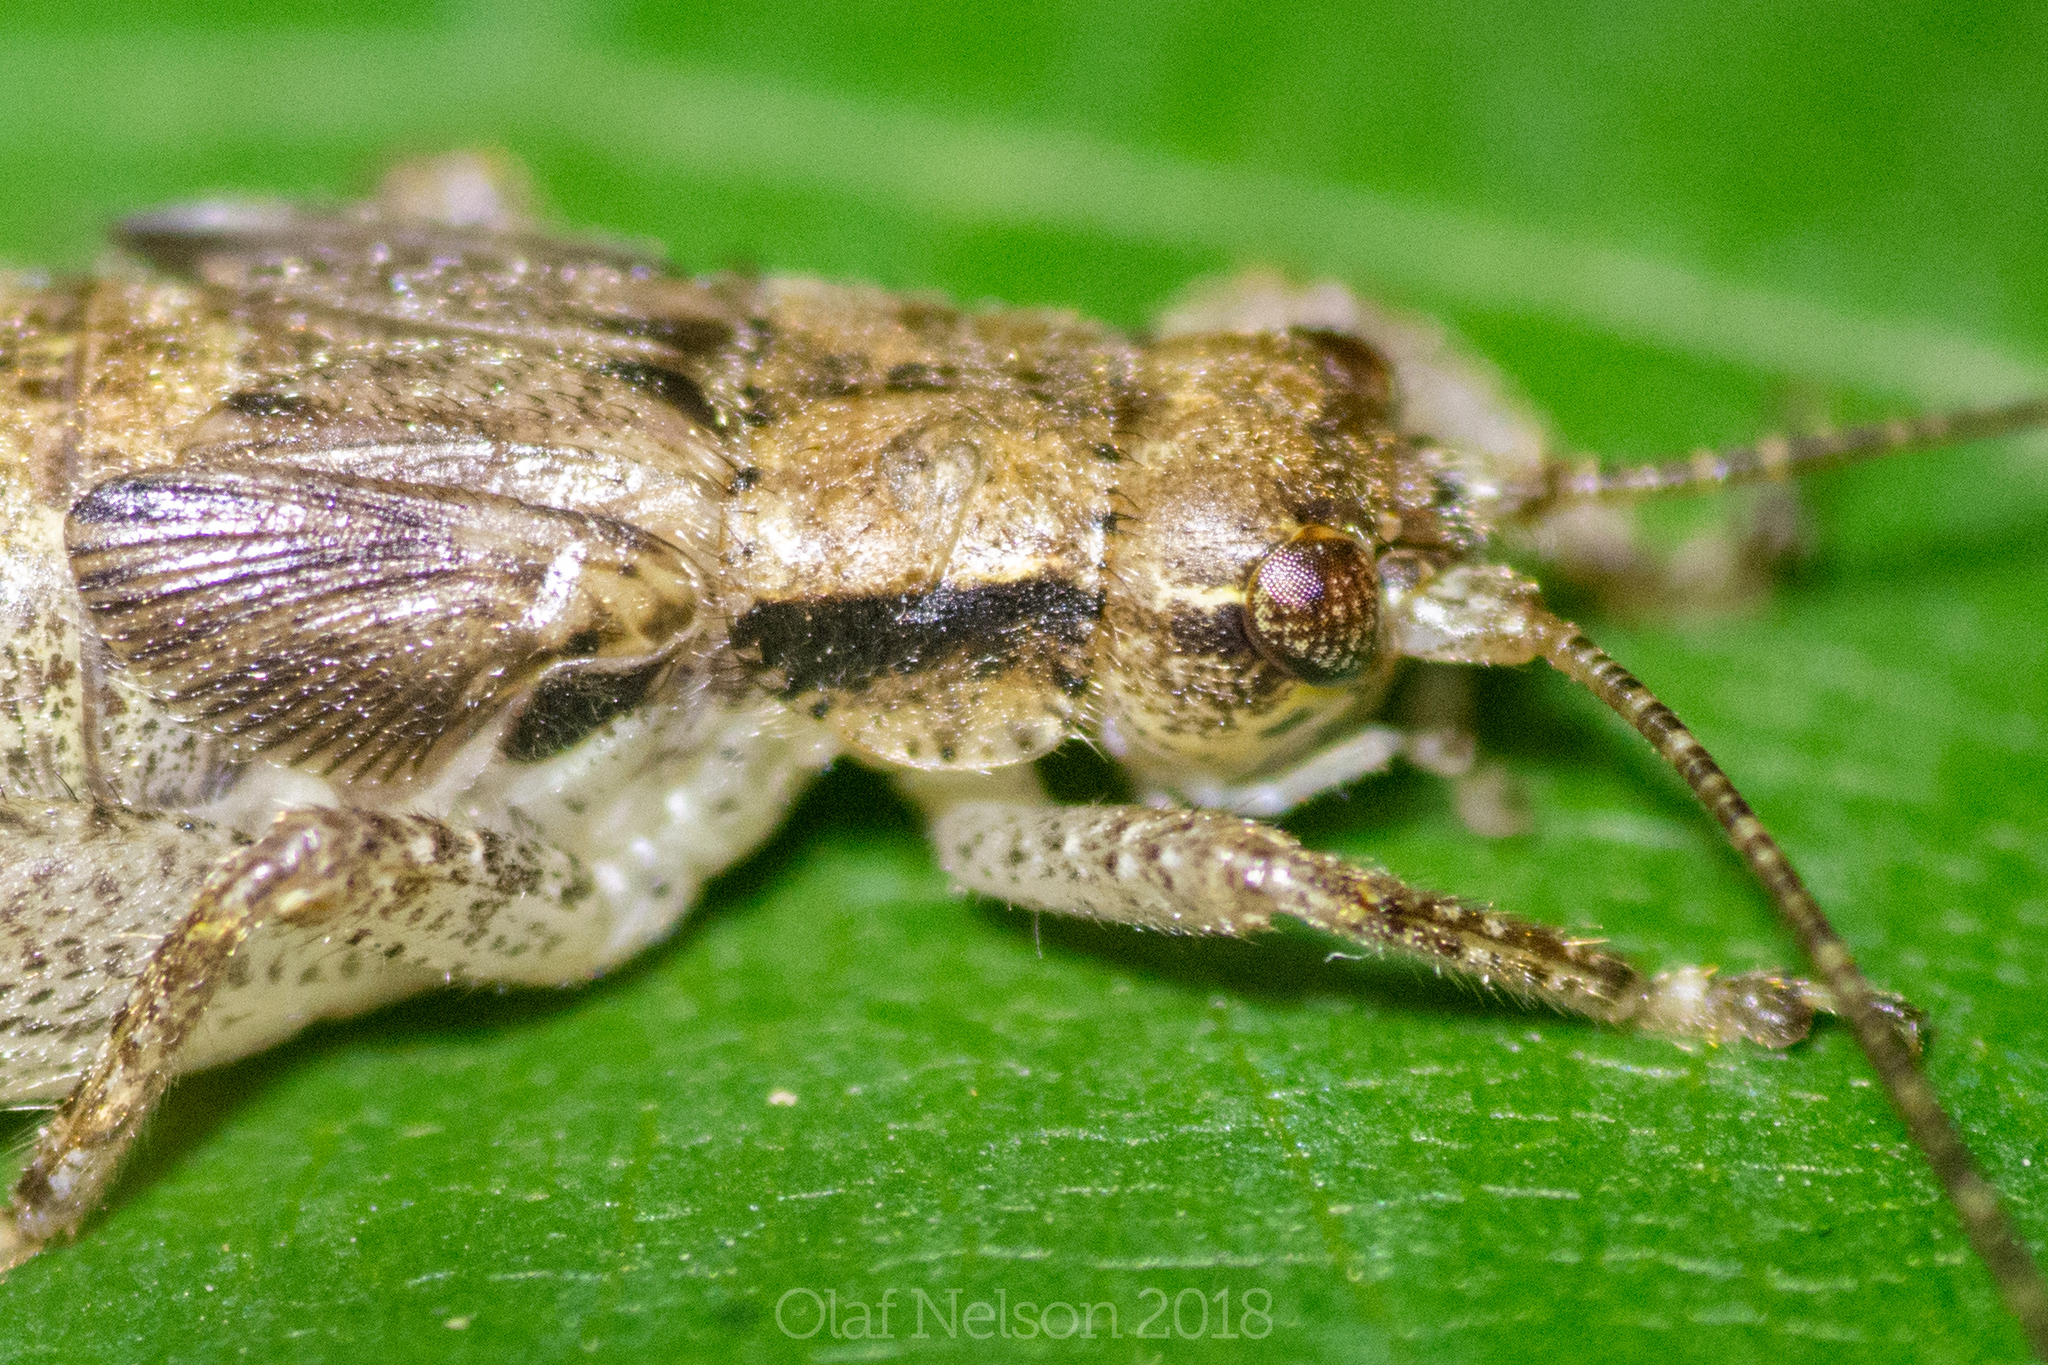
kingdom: Animalia
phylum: Arthropoda
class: Insecta
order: Orthoptera
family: Gryllidae
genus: Hapithus
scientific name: Hapithus saltator
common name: Jumping bush cricket
